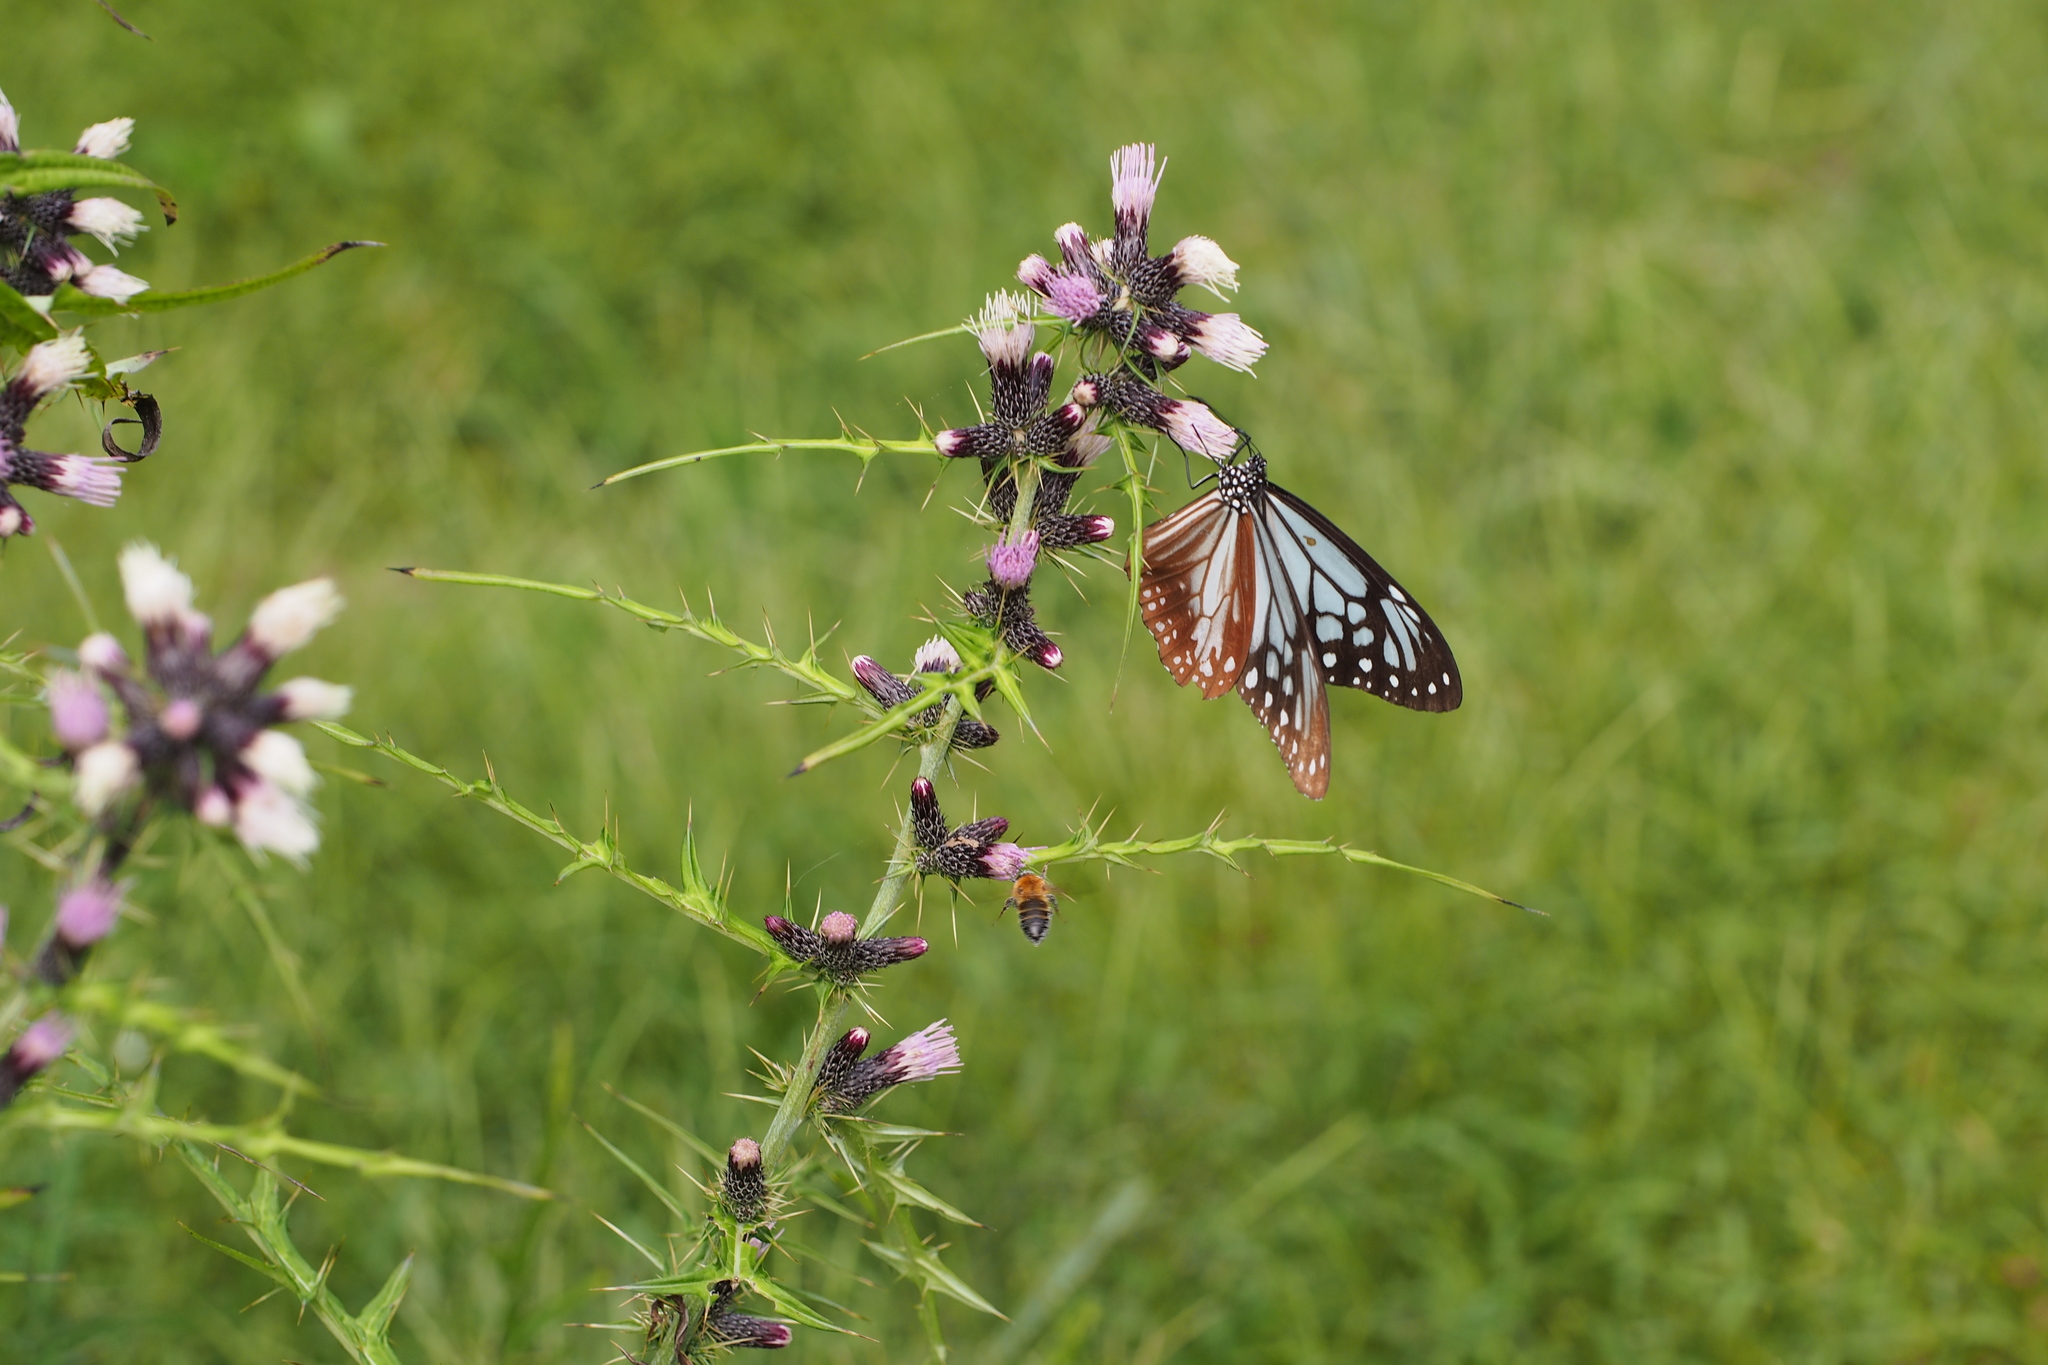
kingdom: Animalia
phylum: Arthropoda
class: Insecta
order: Lepidoptera
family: Nymphalidae
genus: Parantica
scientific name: Parantica sita
